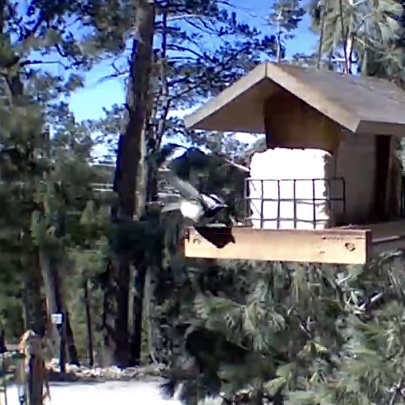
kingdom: Animalia
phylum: Chordata
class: Aves
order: Passeriformes
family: Paridae
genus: Poecile
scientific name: Poecile gambeli
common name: Mountain chickadee
